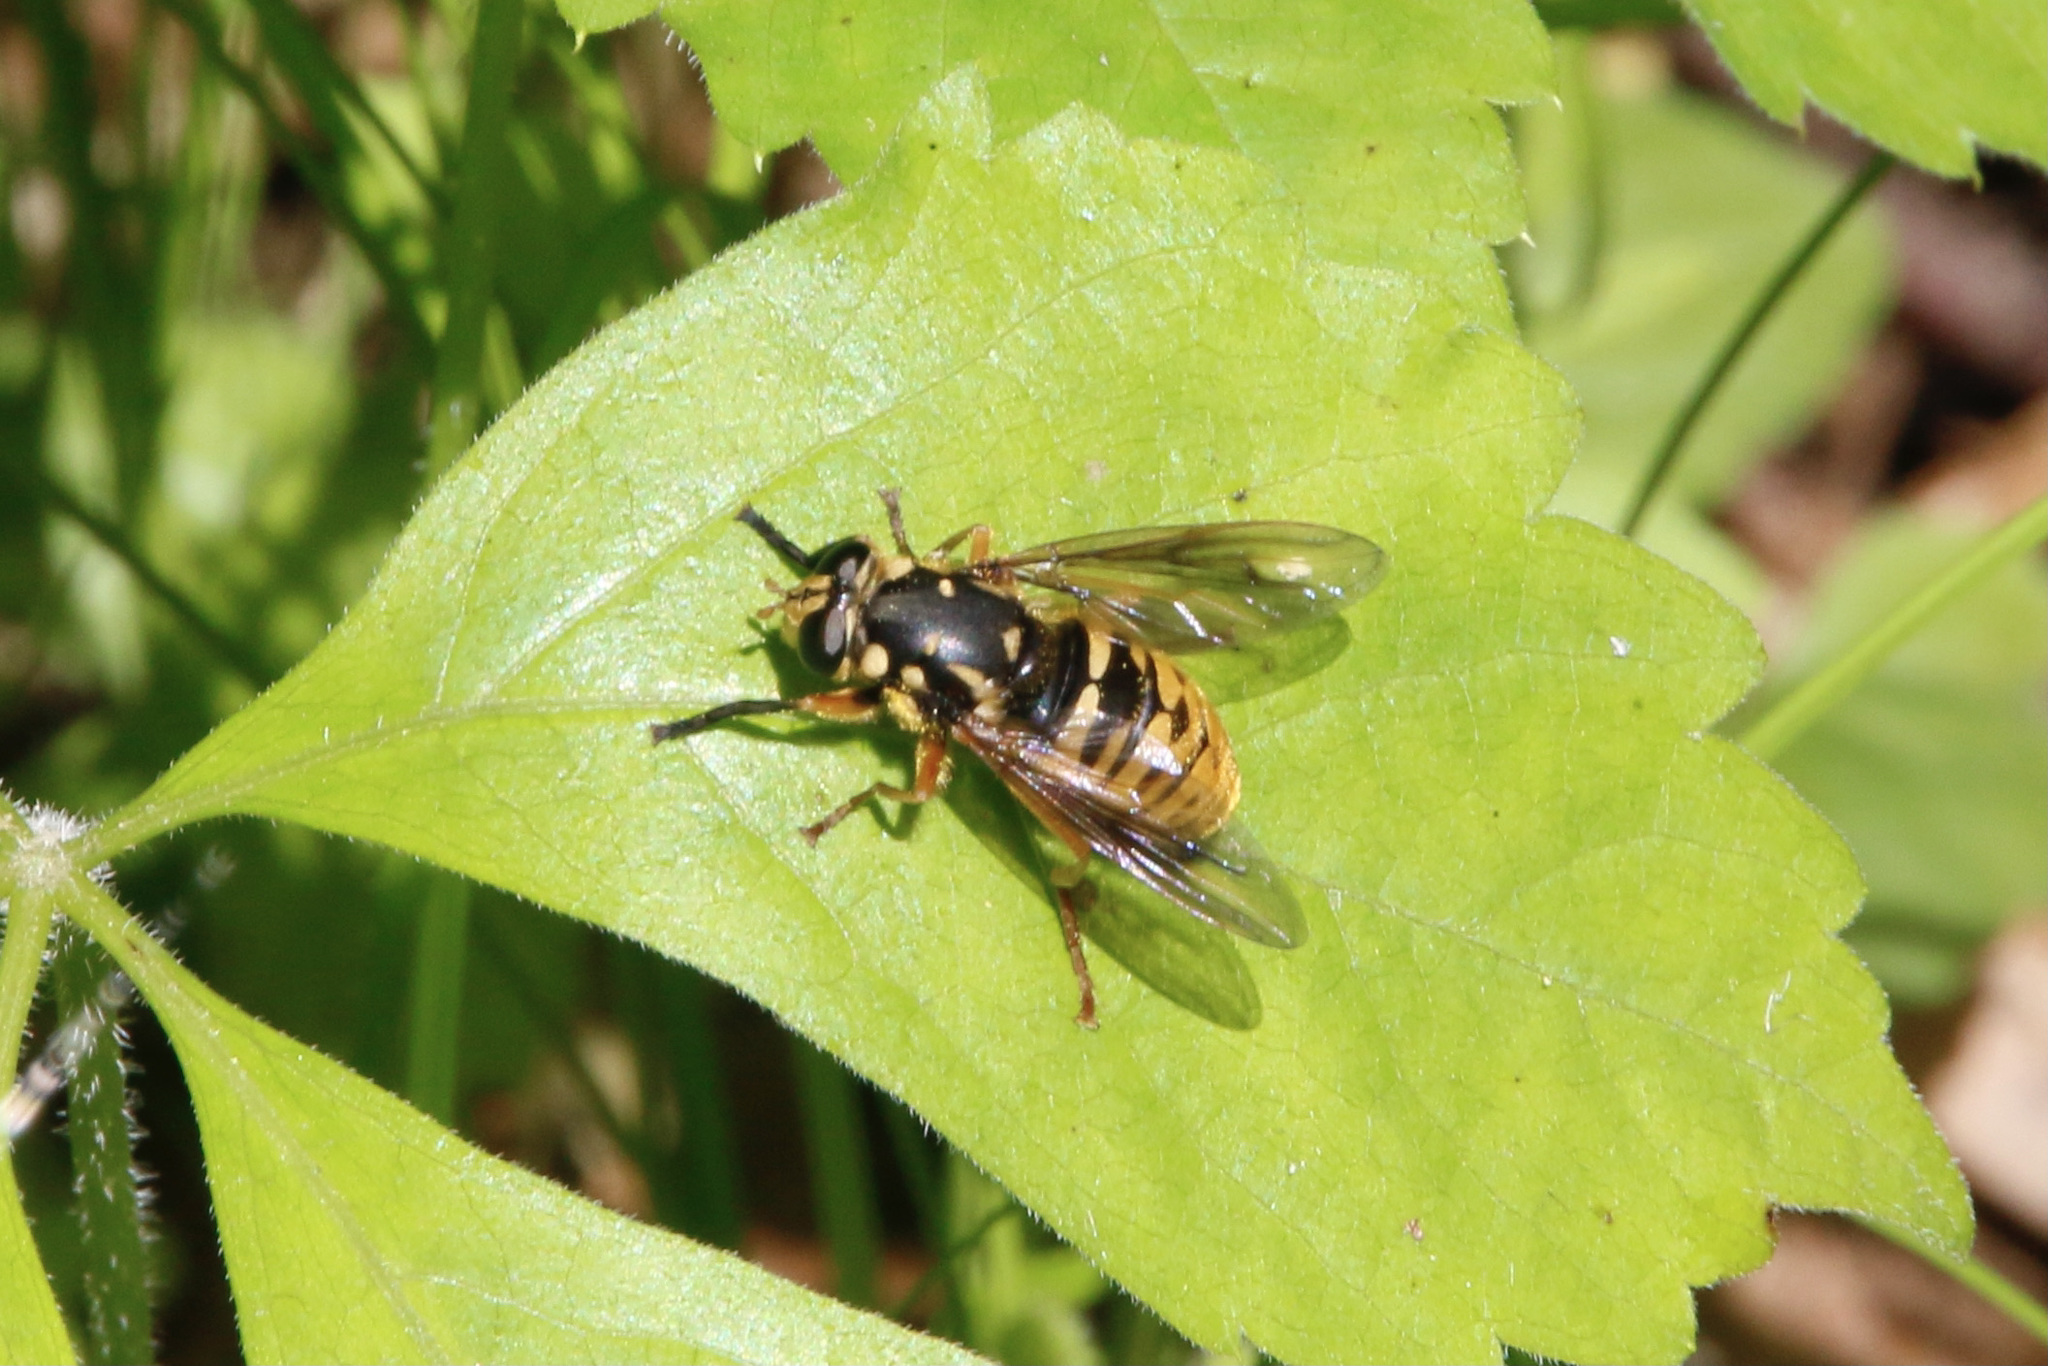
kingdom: Animalia
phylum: Arthropoda
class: Insecta
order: Diptera
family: Syrphidae
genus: Temnostoma
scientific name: Temnostoma alternans
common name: Wasp-like falsehorn
